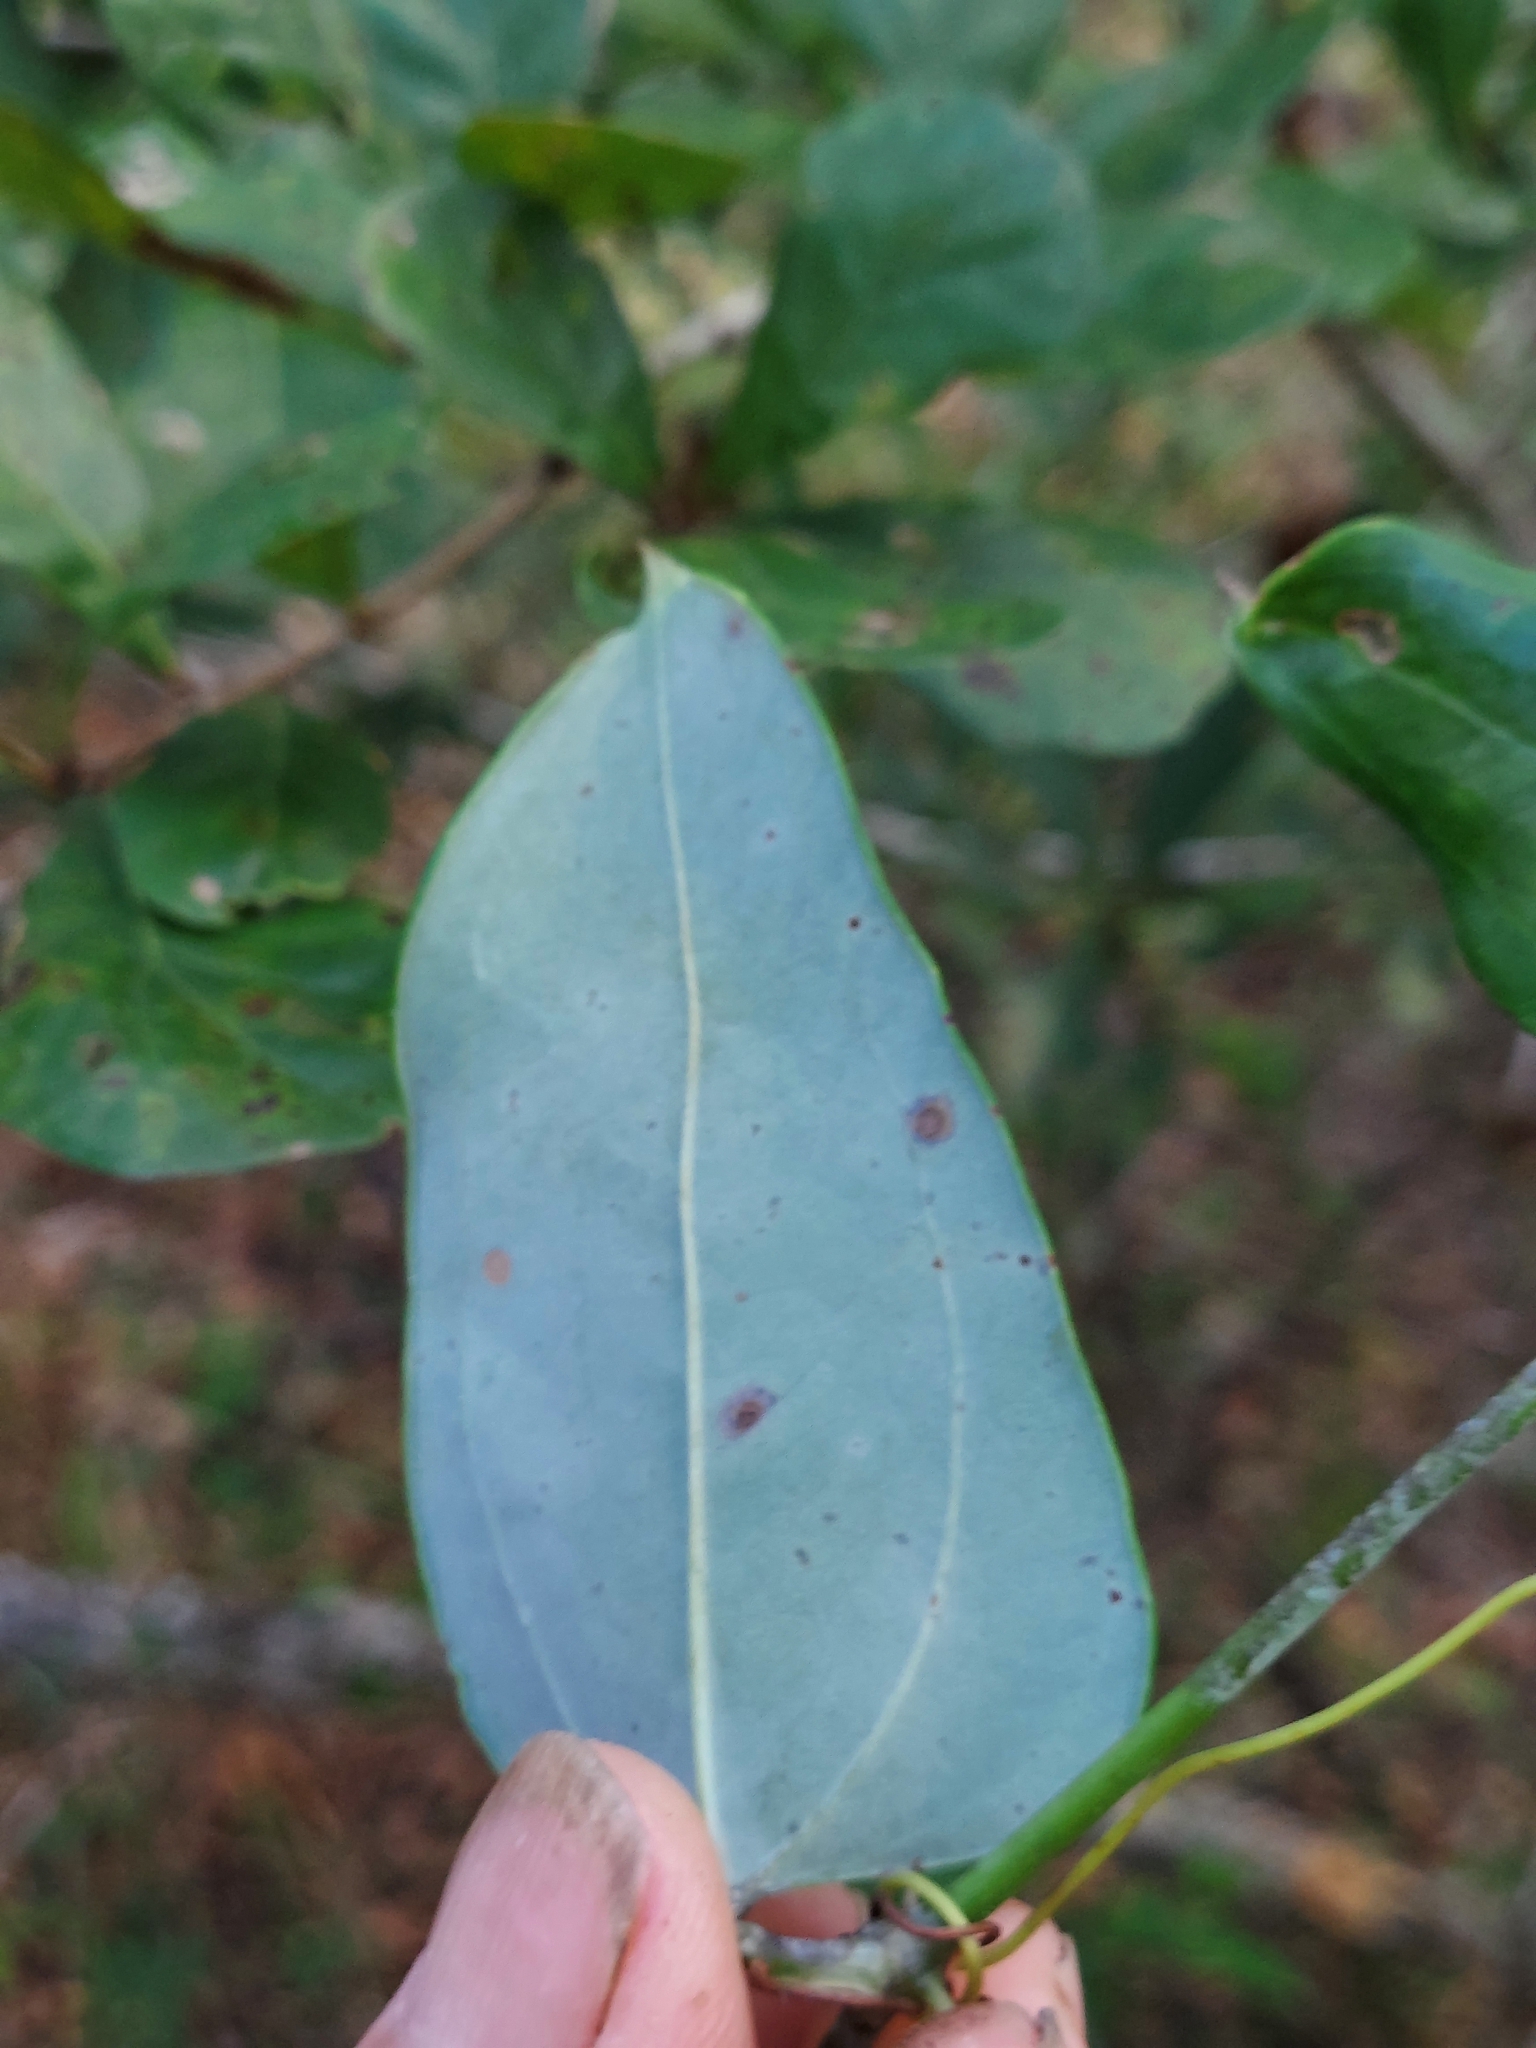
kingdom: Plantae
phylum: Tracheophyta
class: Liliopsida
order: Liliales
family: Smilacaceae
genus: Smilax
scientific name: Smilax glauca
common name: Cat greenbrier
